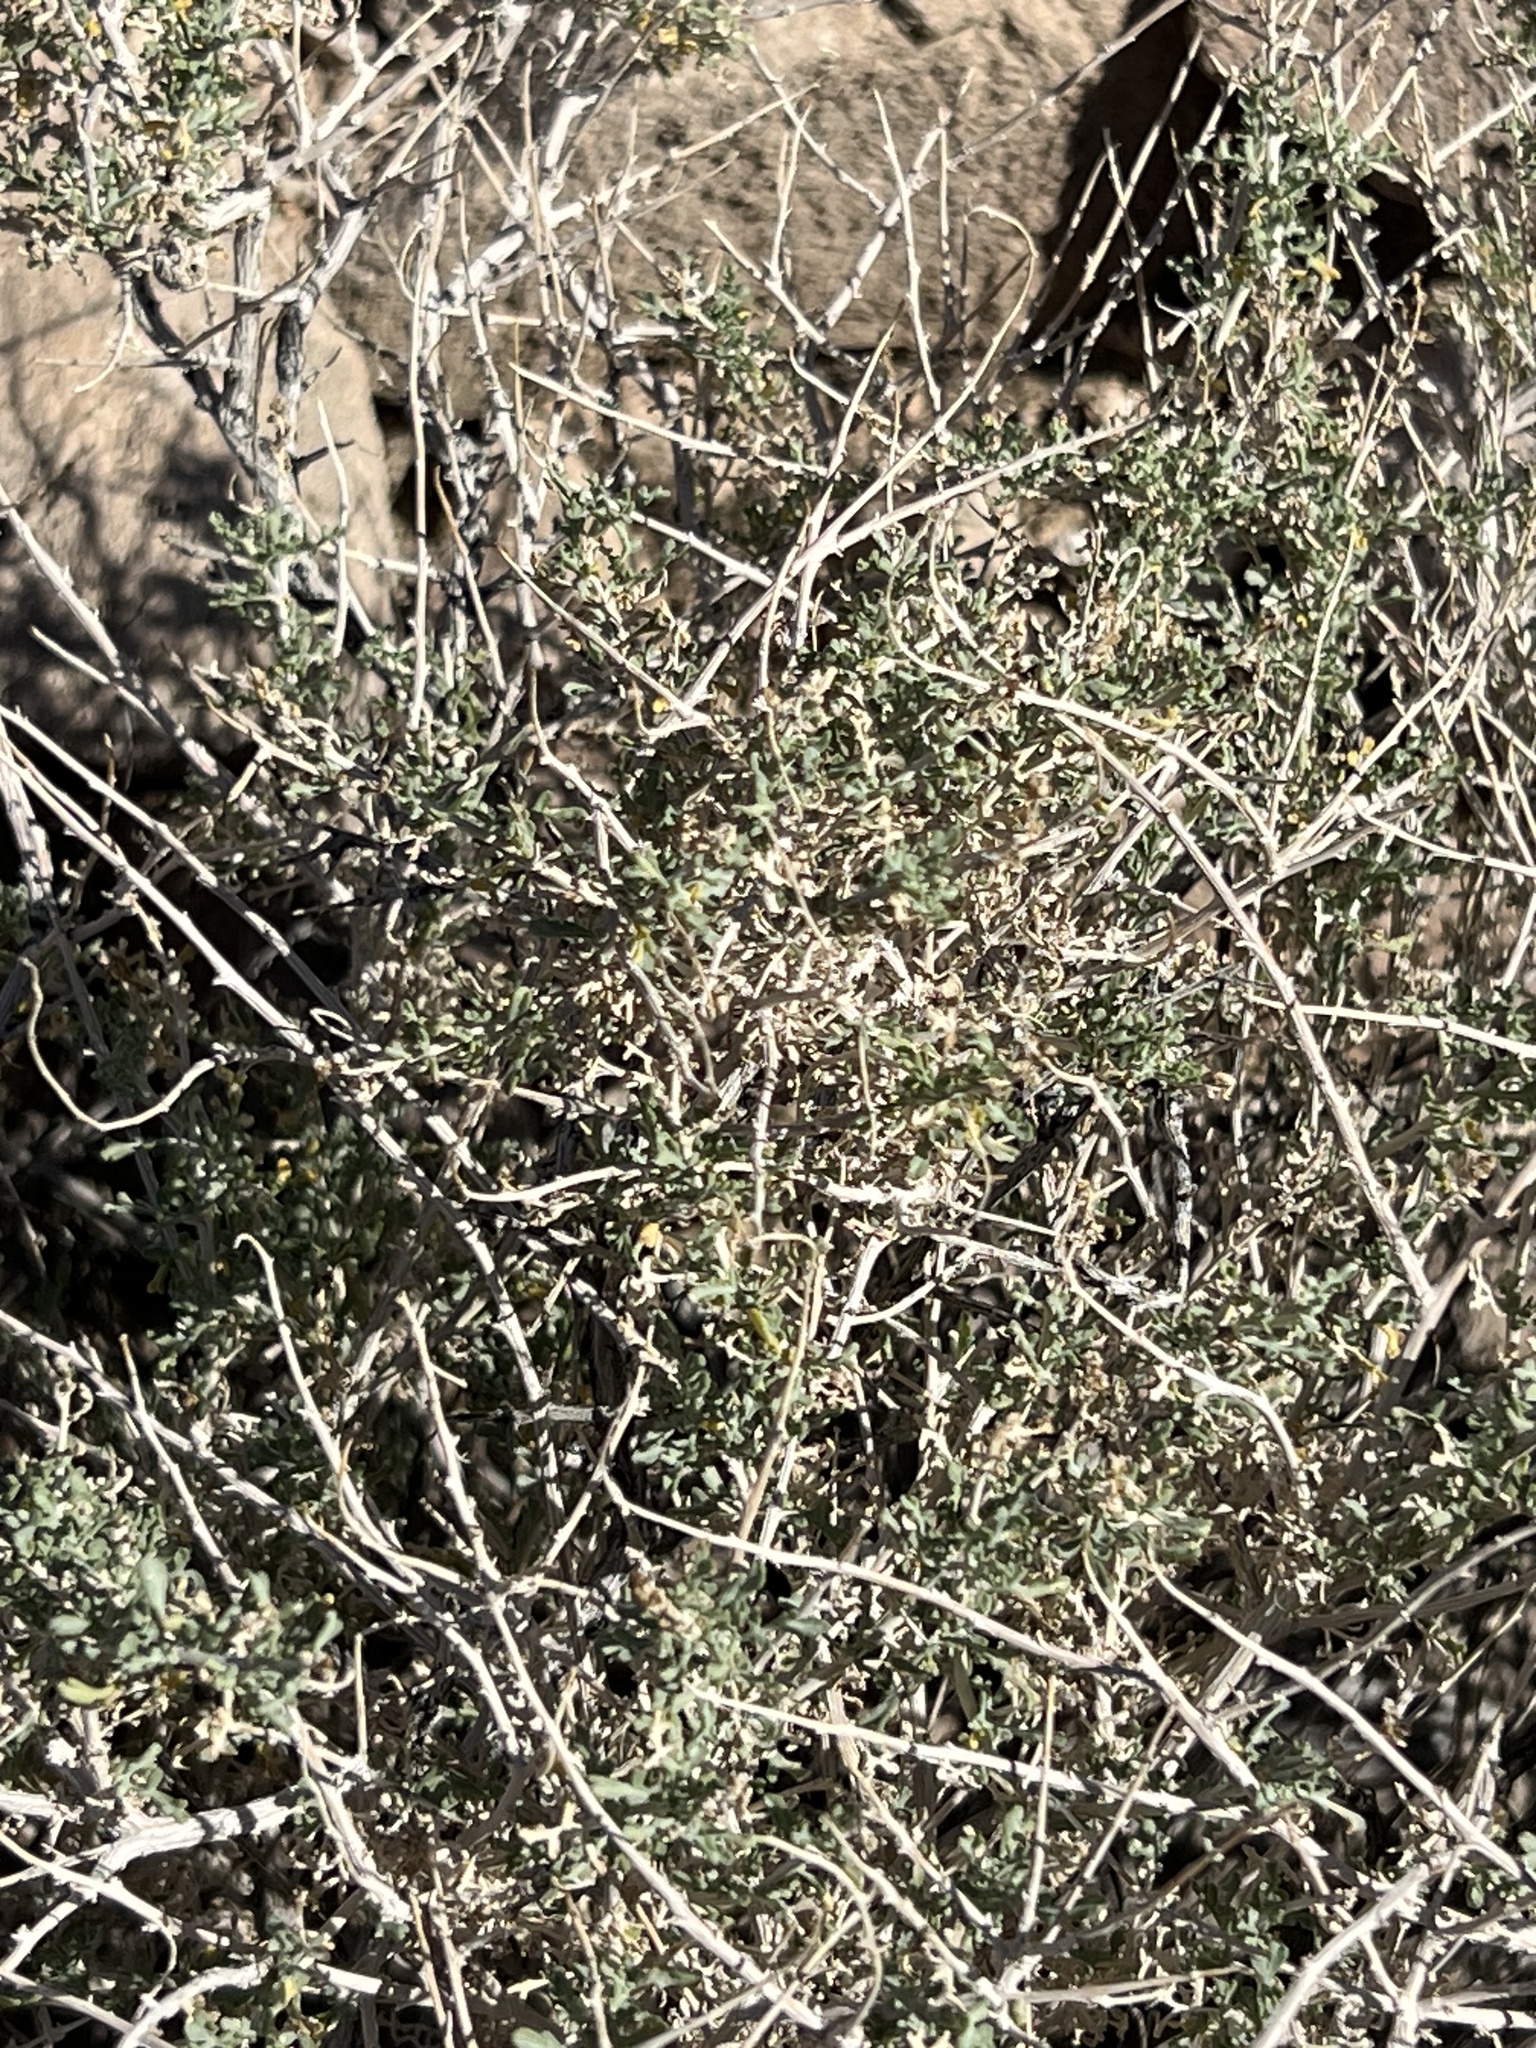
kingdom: Plantae
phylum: Tracheophyta
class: Magnoliopsida
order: Asterales
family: Asteraceae
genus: Ambrosia
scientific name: Ambrosia dumosa
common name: Bur-sage
